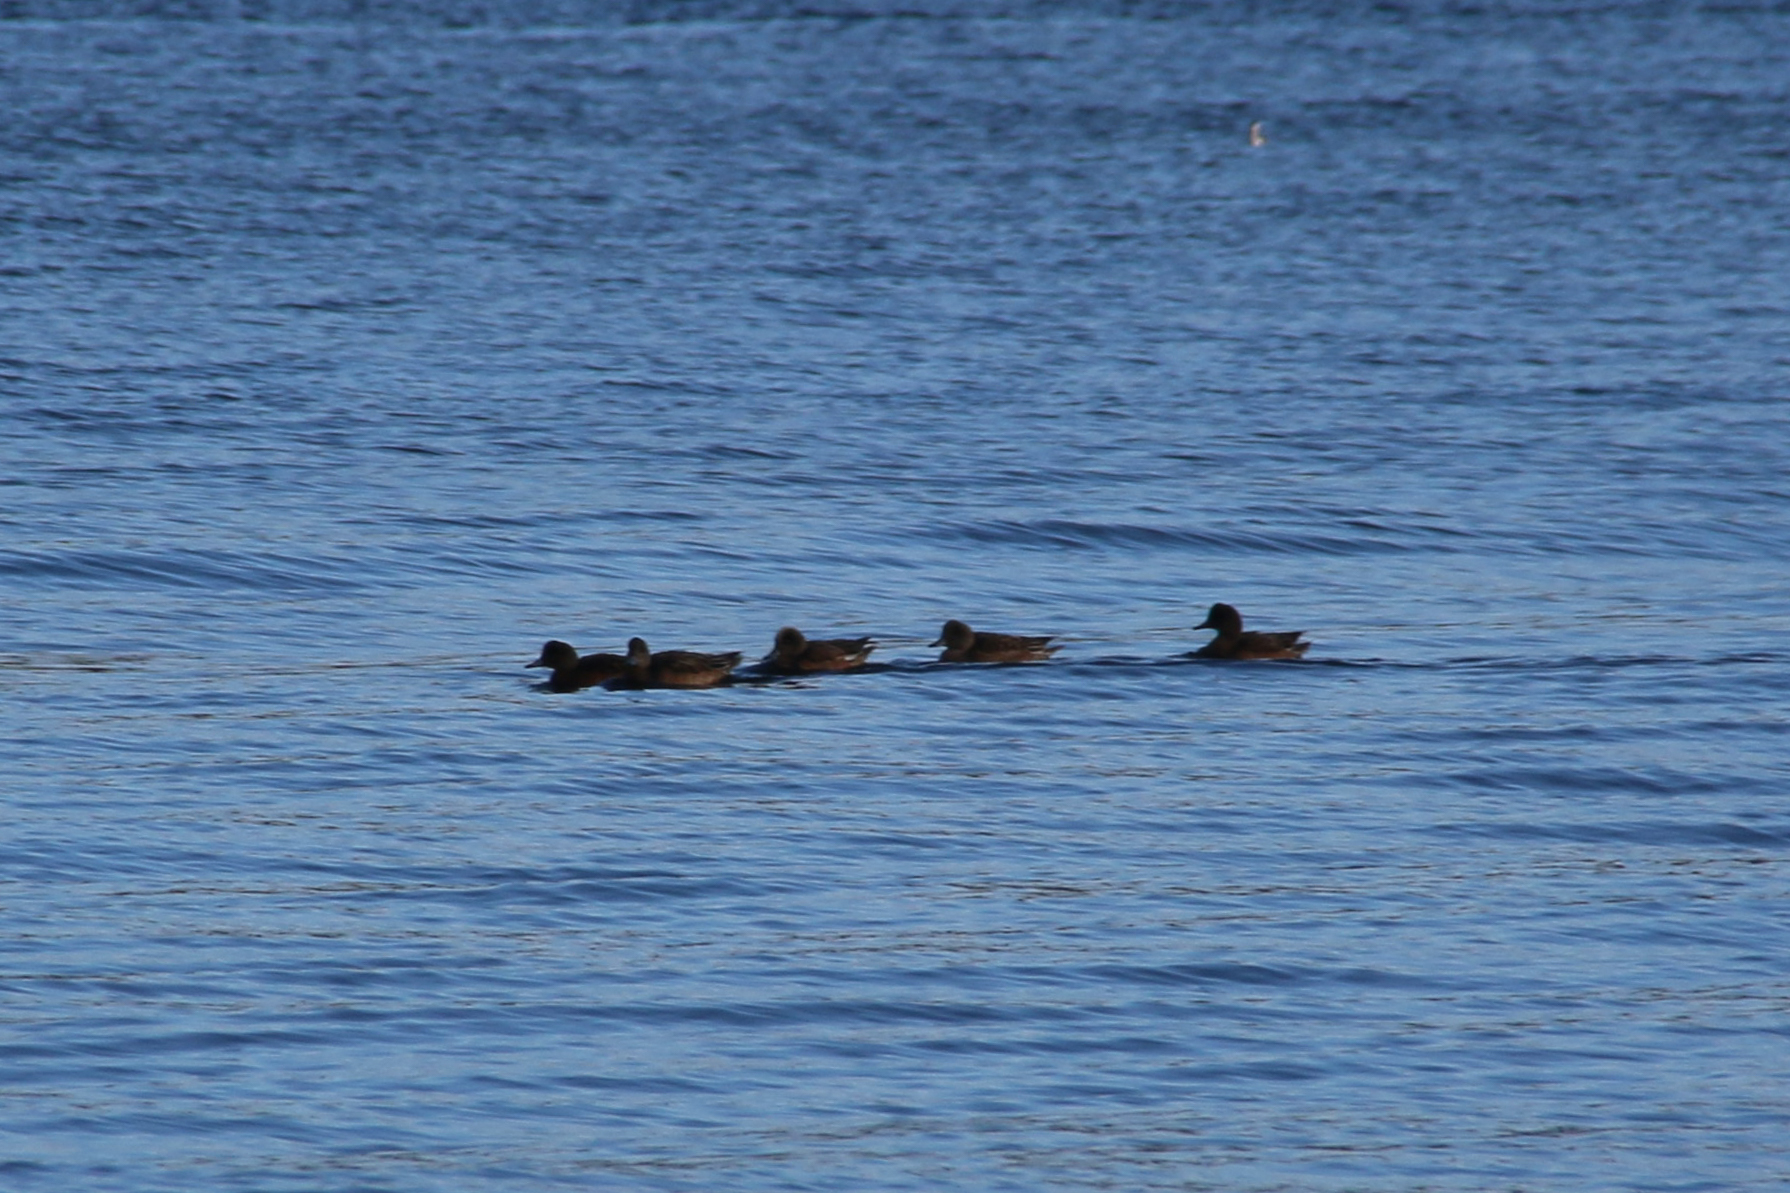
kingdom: Animalia
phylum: Chordata
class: Aves
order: Anseriformes
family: Anatidae
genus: Mareca
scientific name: Mareca americana
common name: American wigeon
